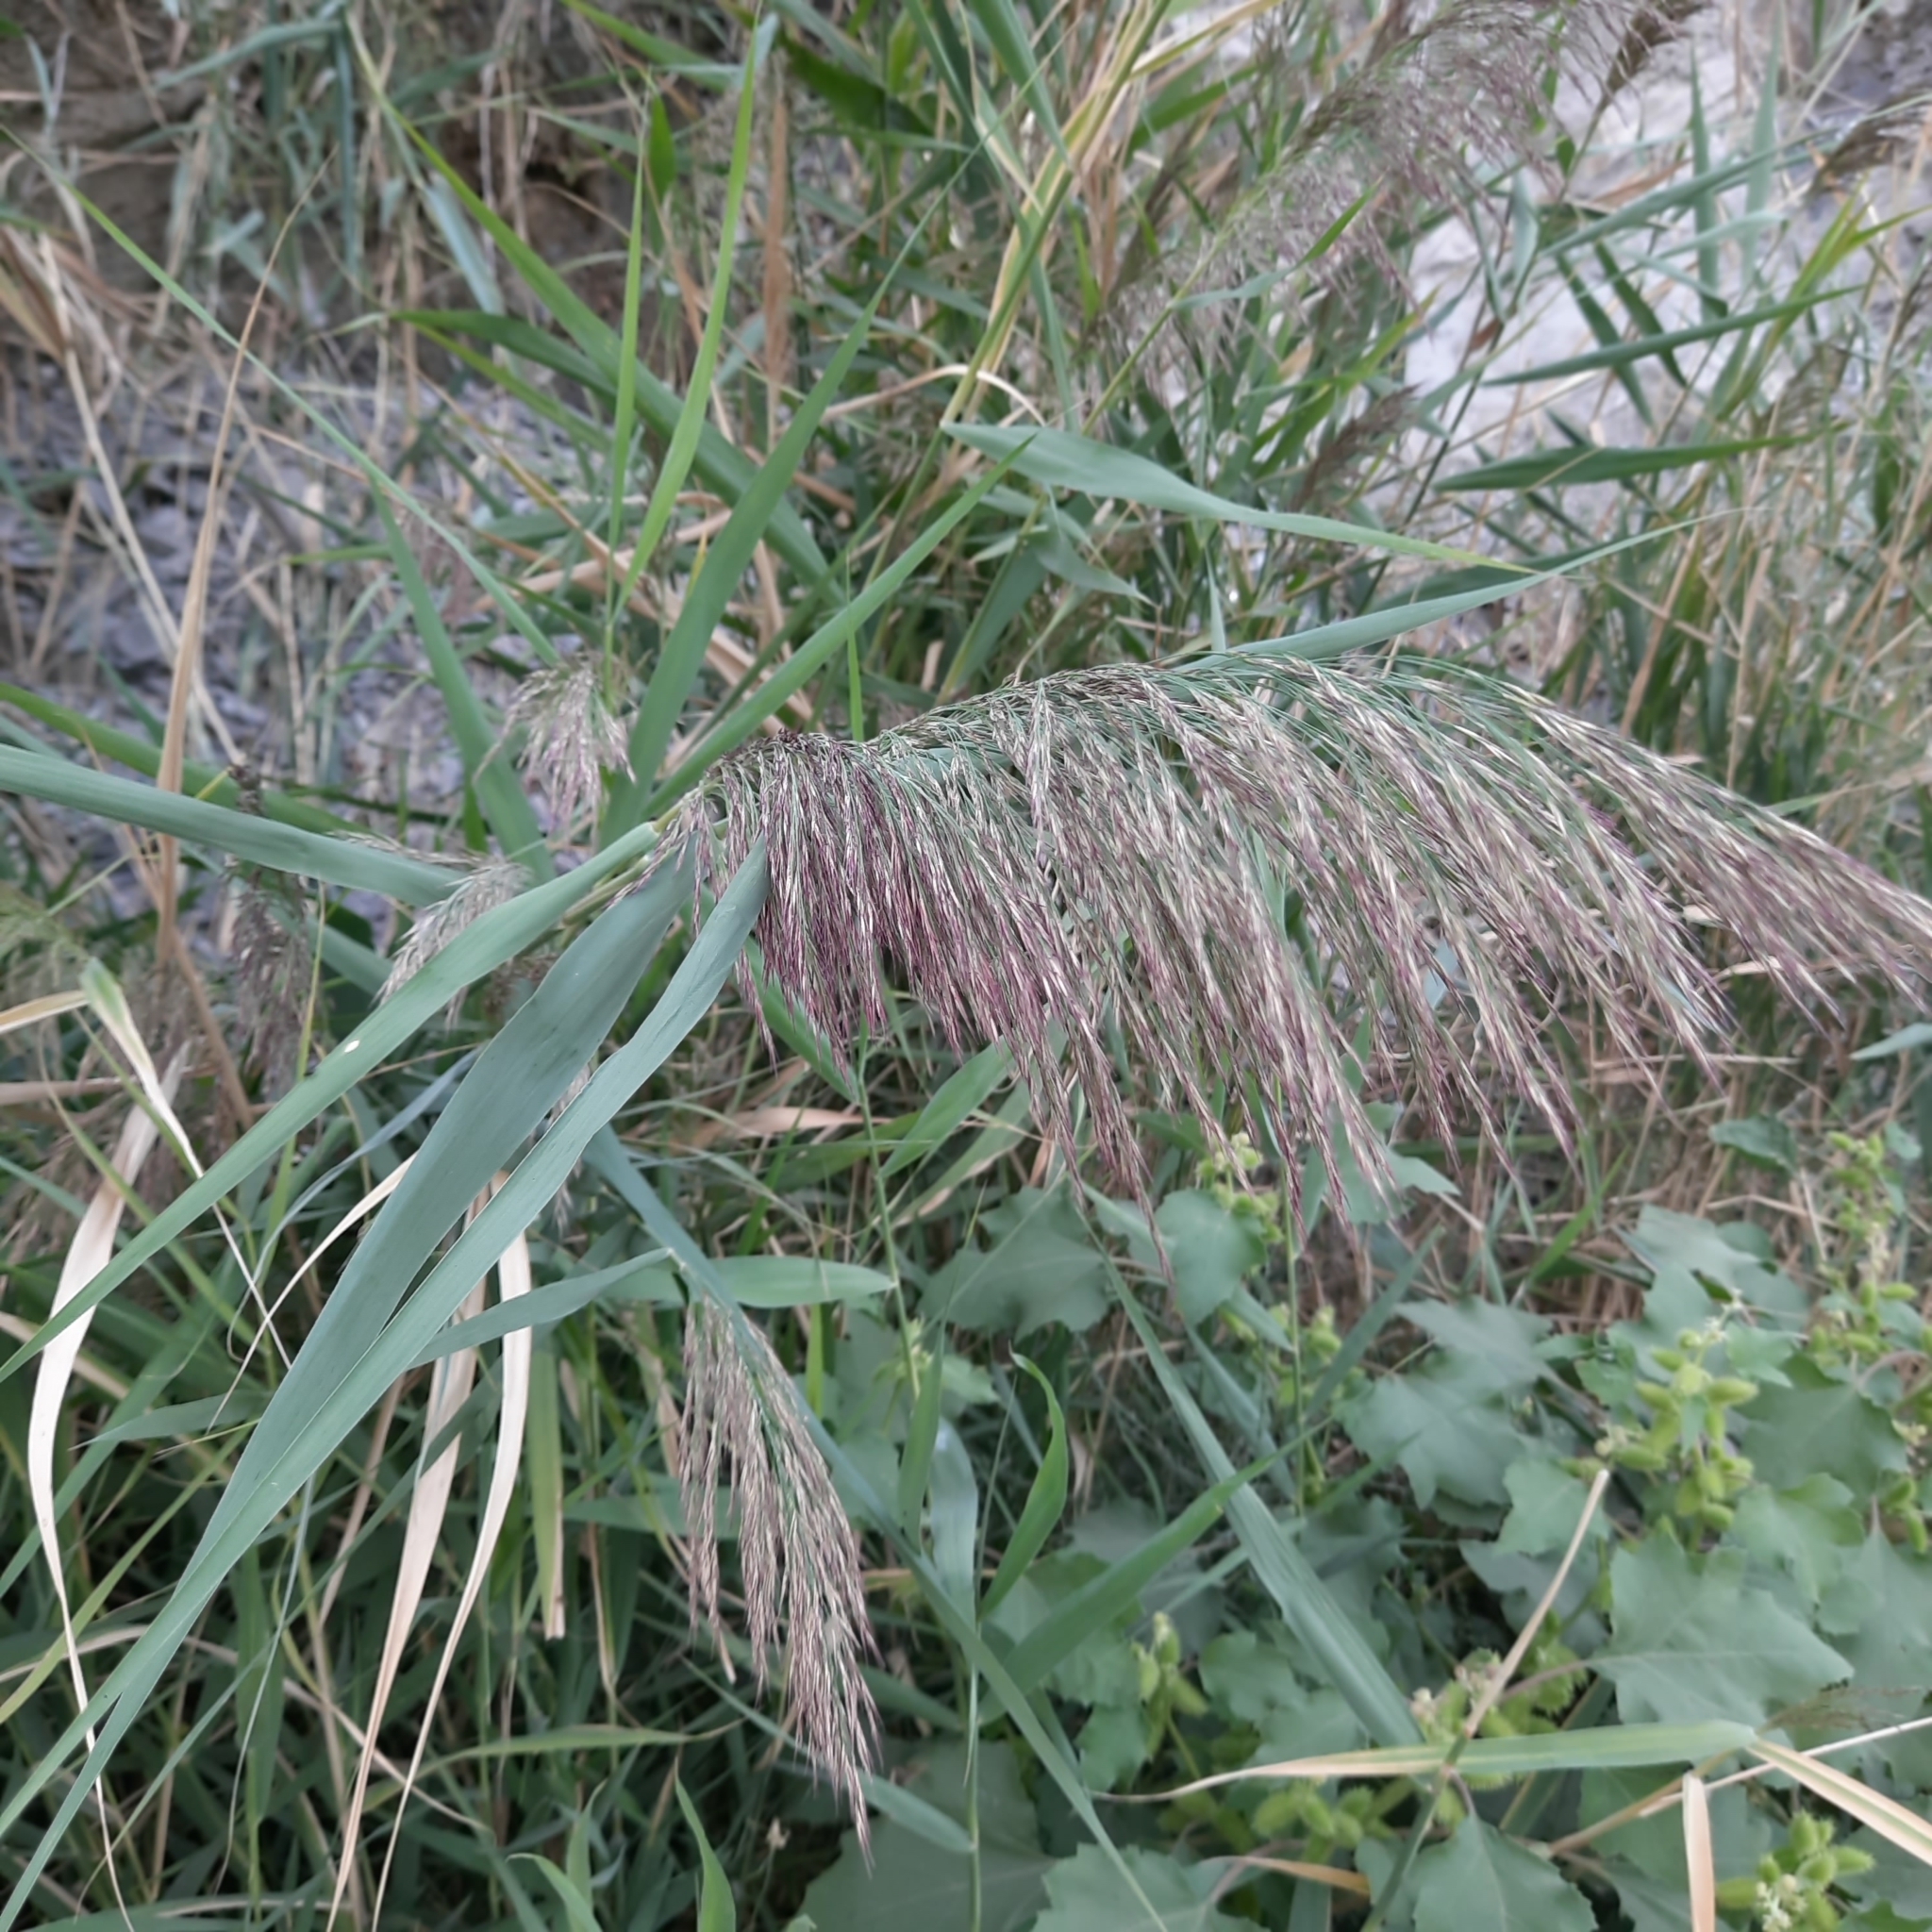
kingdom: Plantae
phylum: Tracheophyta
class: Liliopsida
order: Poales
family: Poaceae
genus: Phragmites
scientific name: Phragmites australis
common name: Common reed
